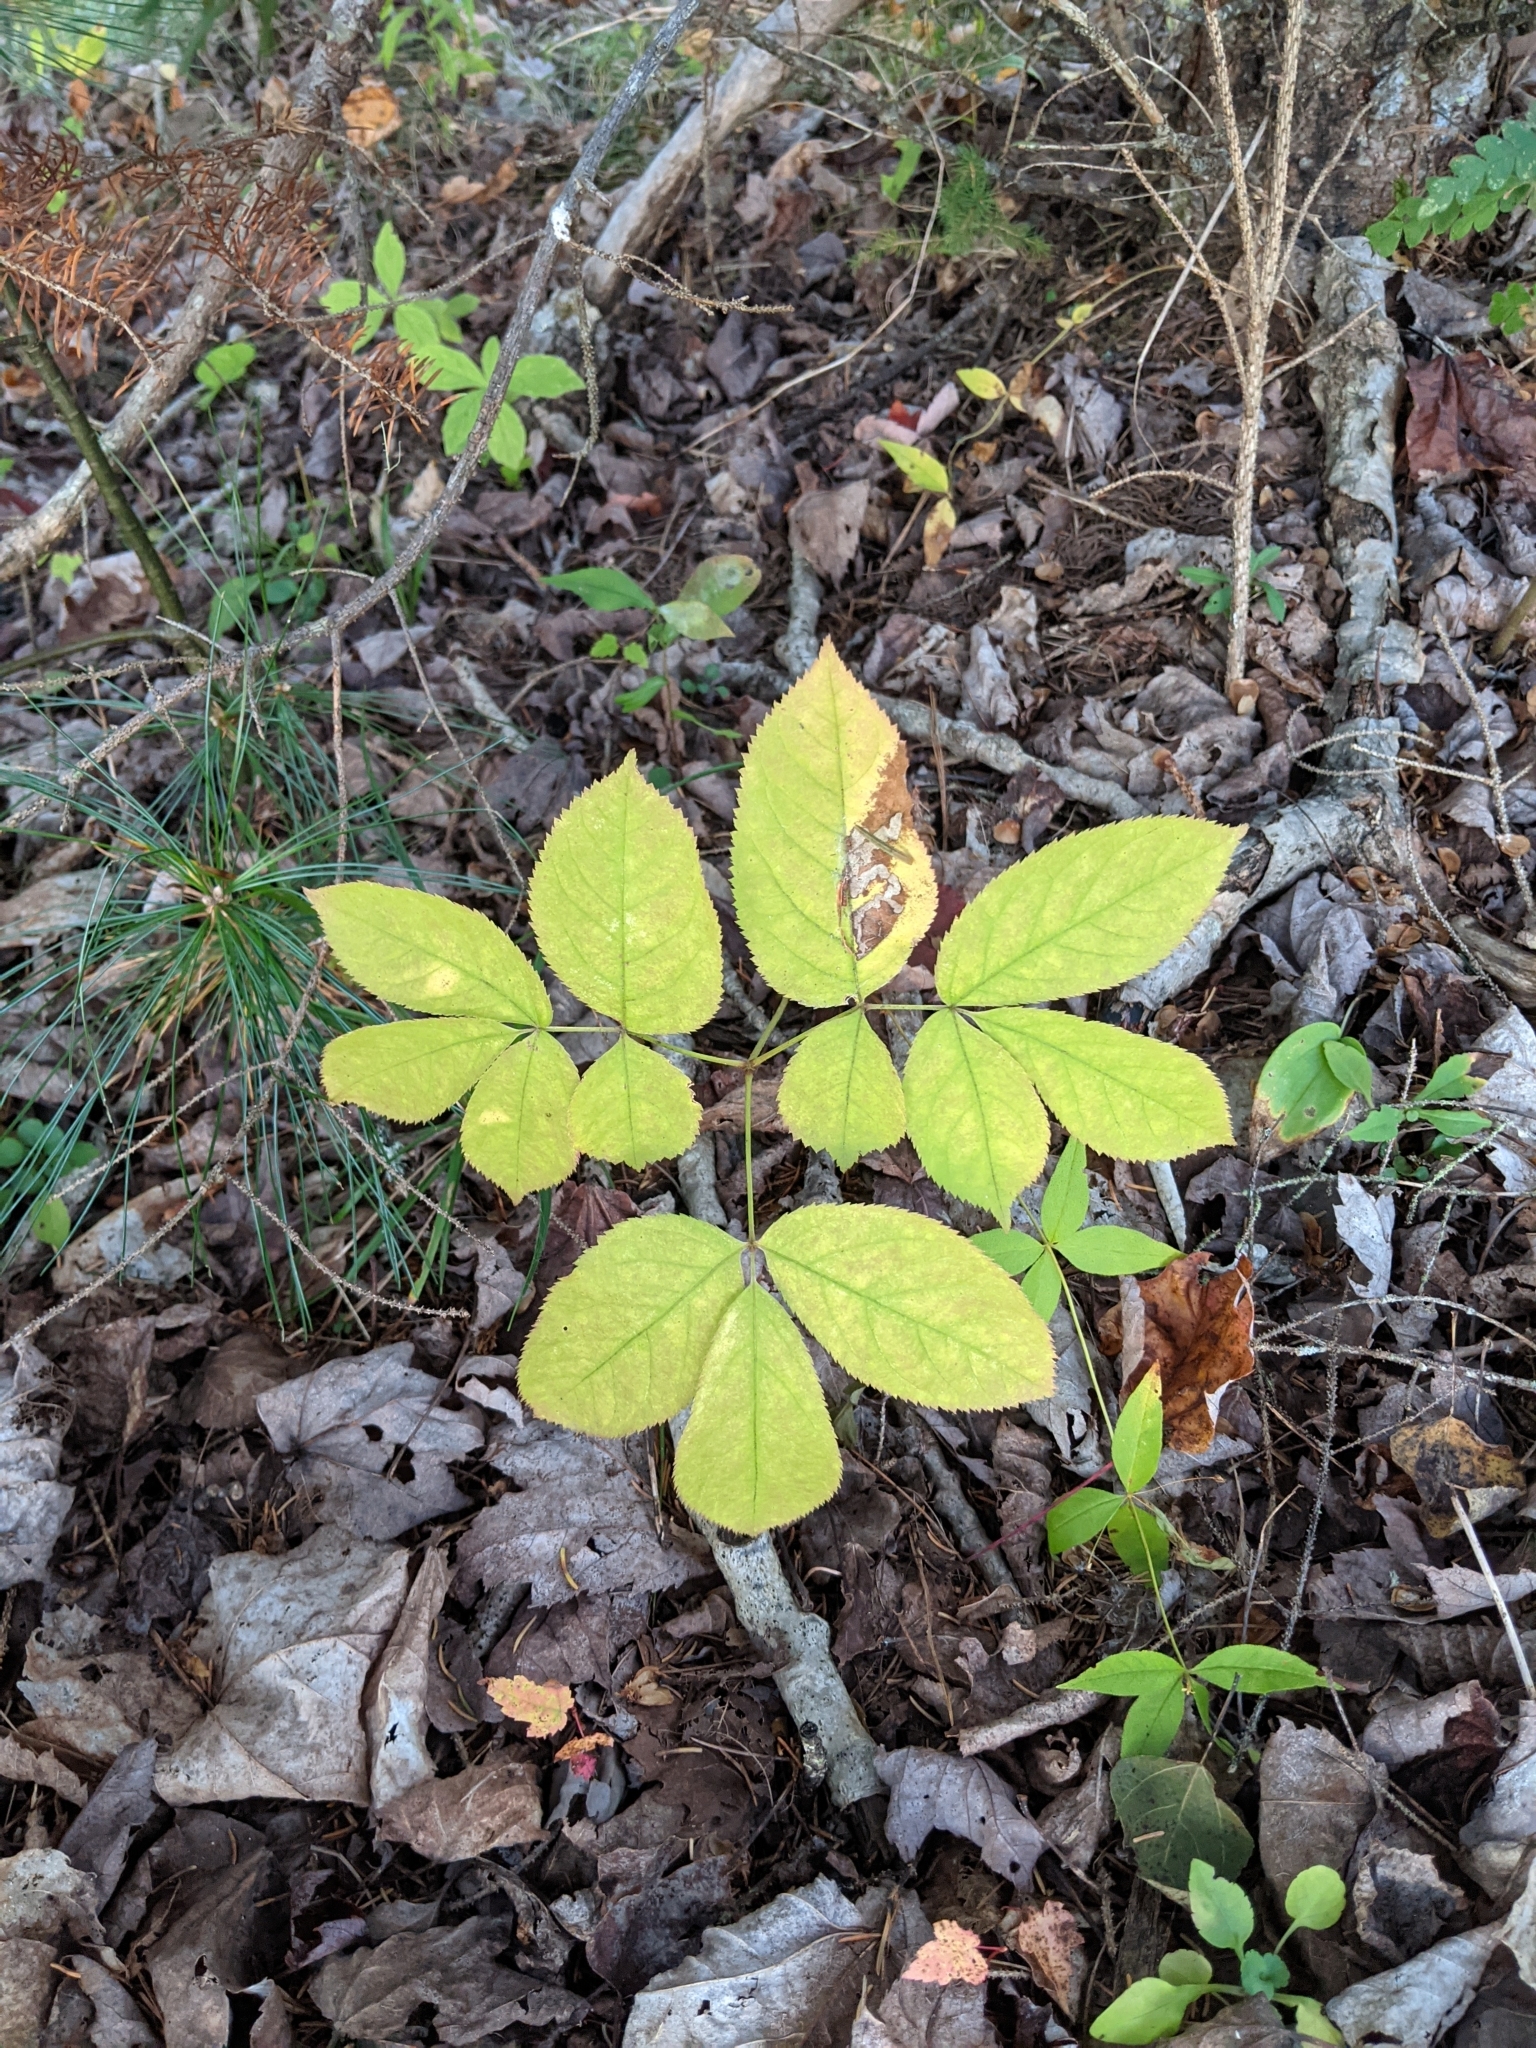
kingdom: Plantae
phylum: Tracheophyta
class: Magnoliopsida
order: Apiales
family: Araliaceae
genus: Aralia
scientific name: Aralia nudicaulis
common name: Wild sarsaparilla
